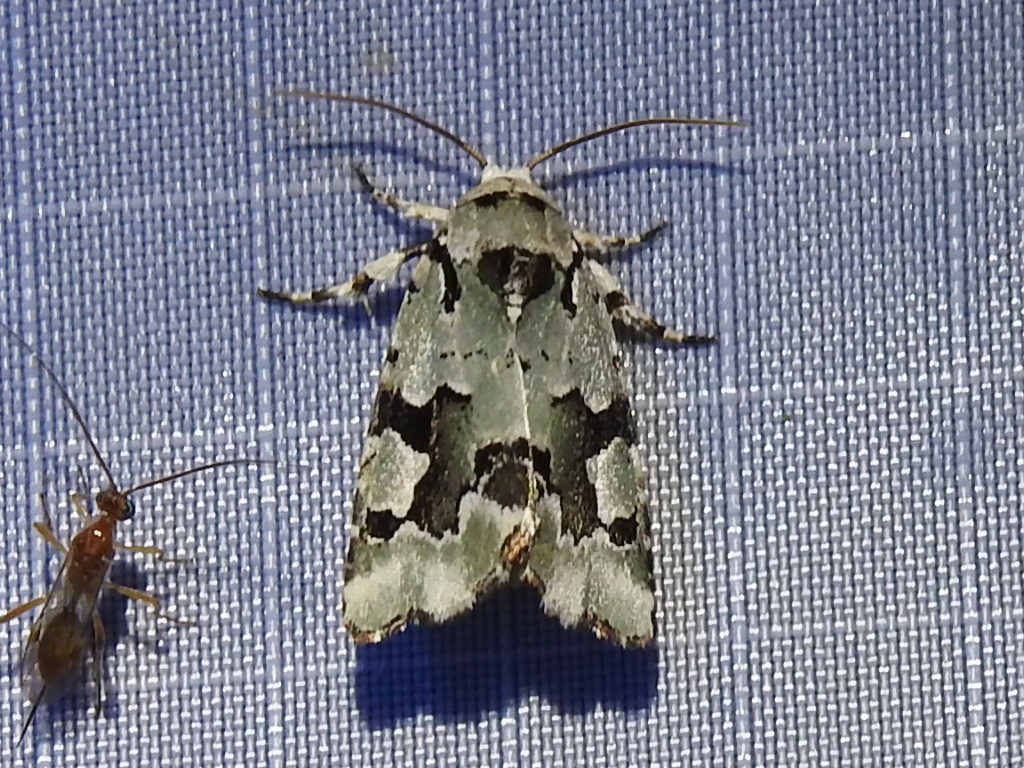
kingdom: Animalia
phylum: Arthropoda
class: Insecta
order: Lepidoptera
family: Noctuidae
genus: Emarginea
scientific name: Emarginea percara
